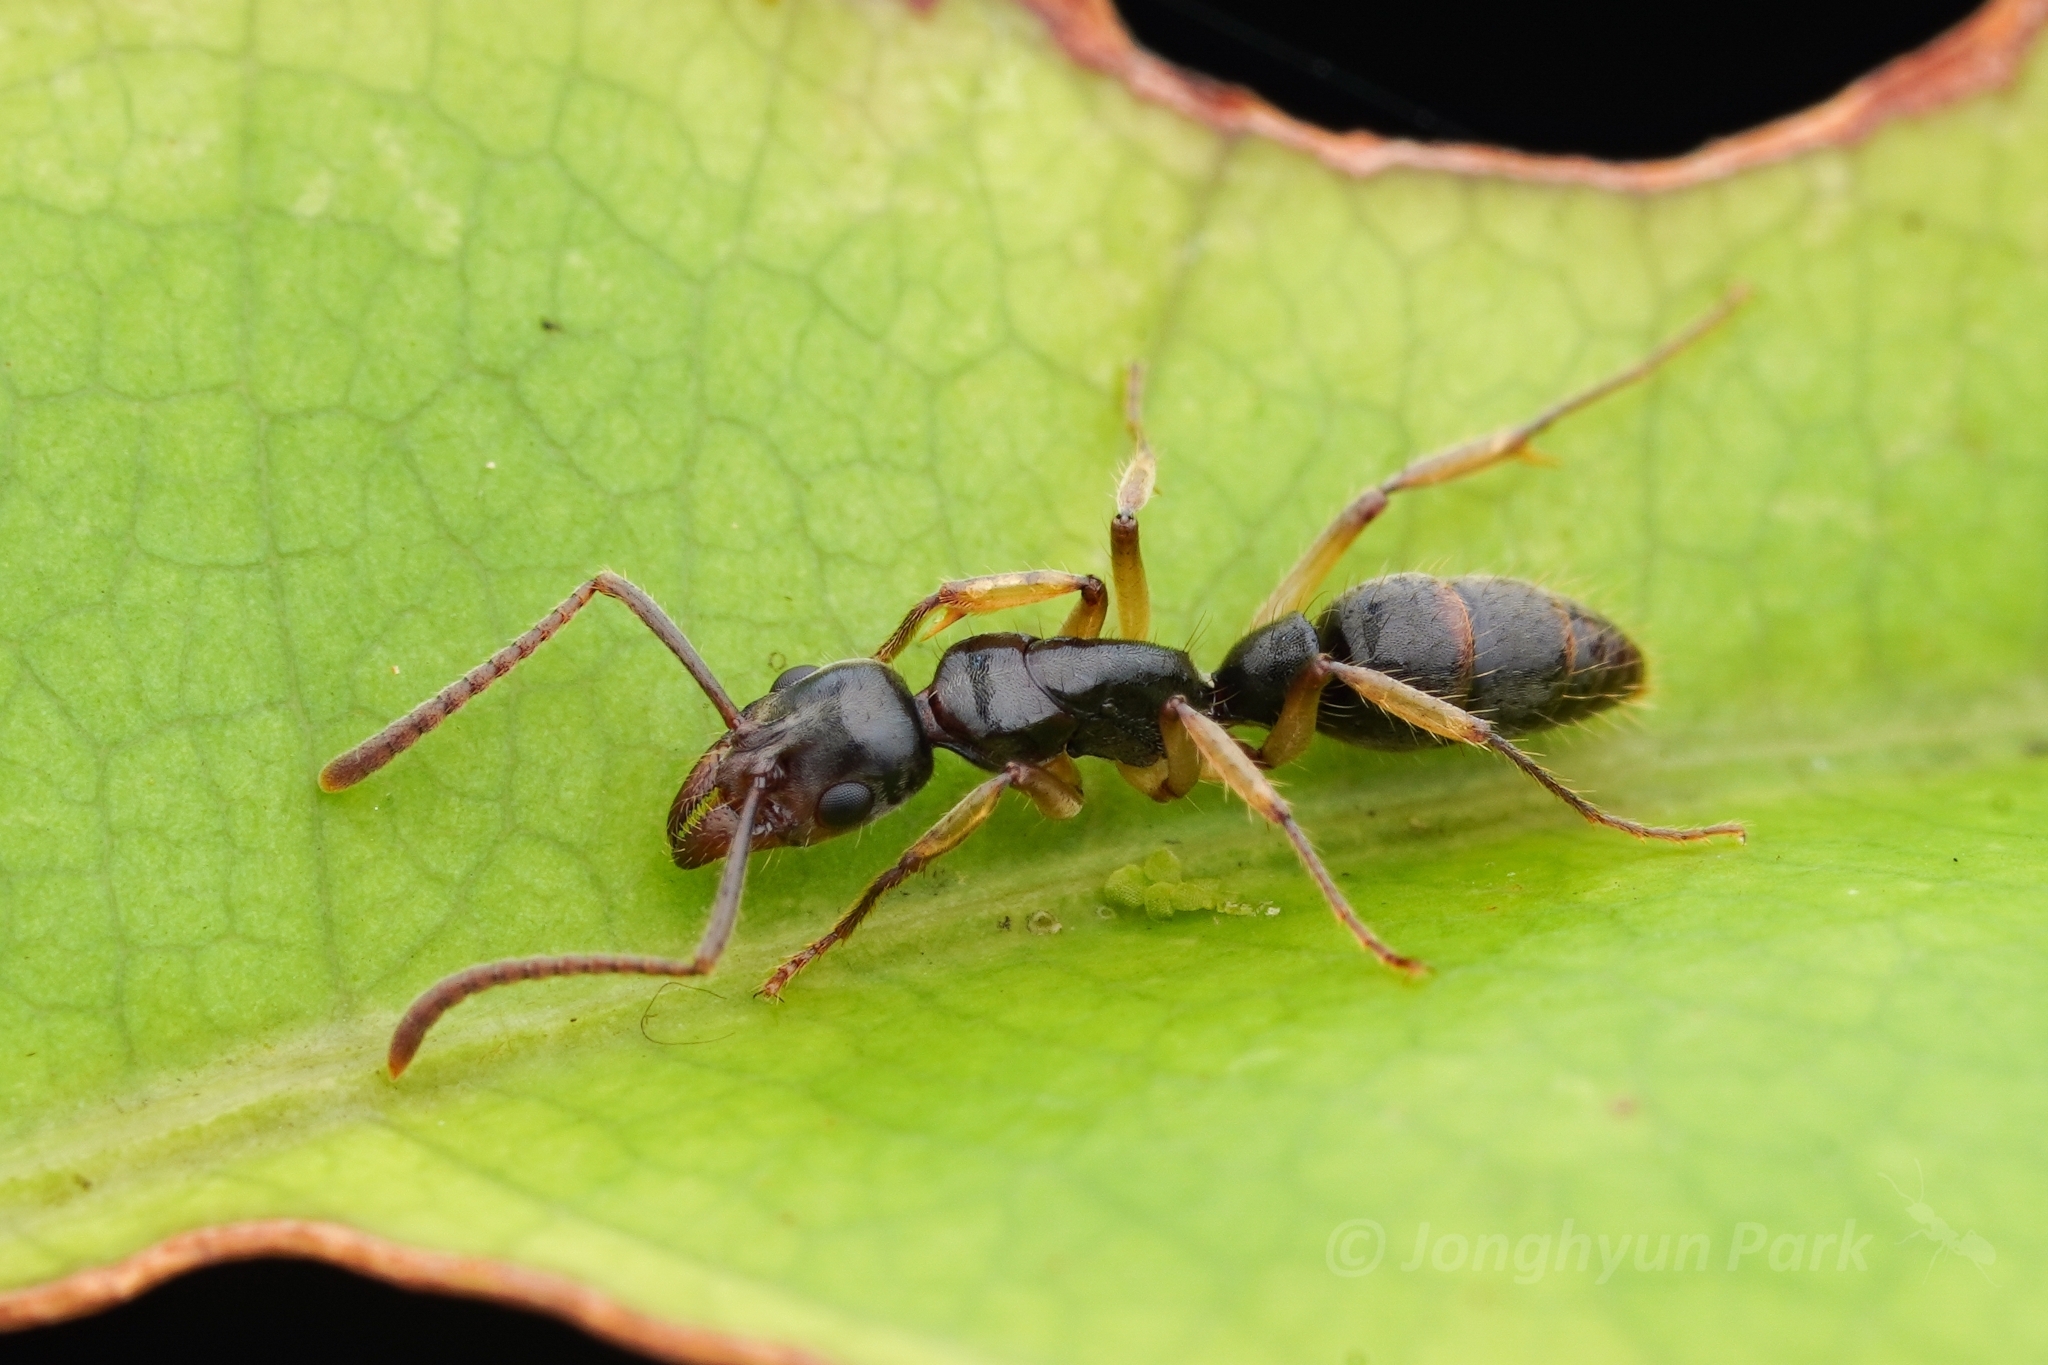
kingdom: Animalia
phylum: Arthropoda
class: Insecta
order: Hymenoptera
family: Formicidae
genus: Neoponera
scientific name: Neoponera oberthueri
